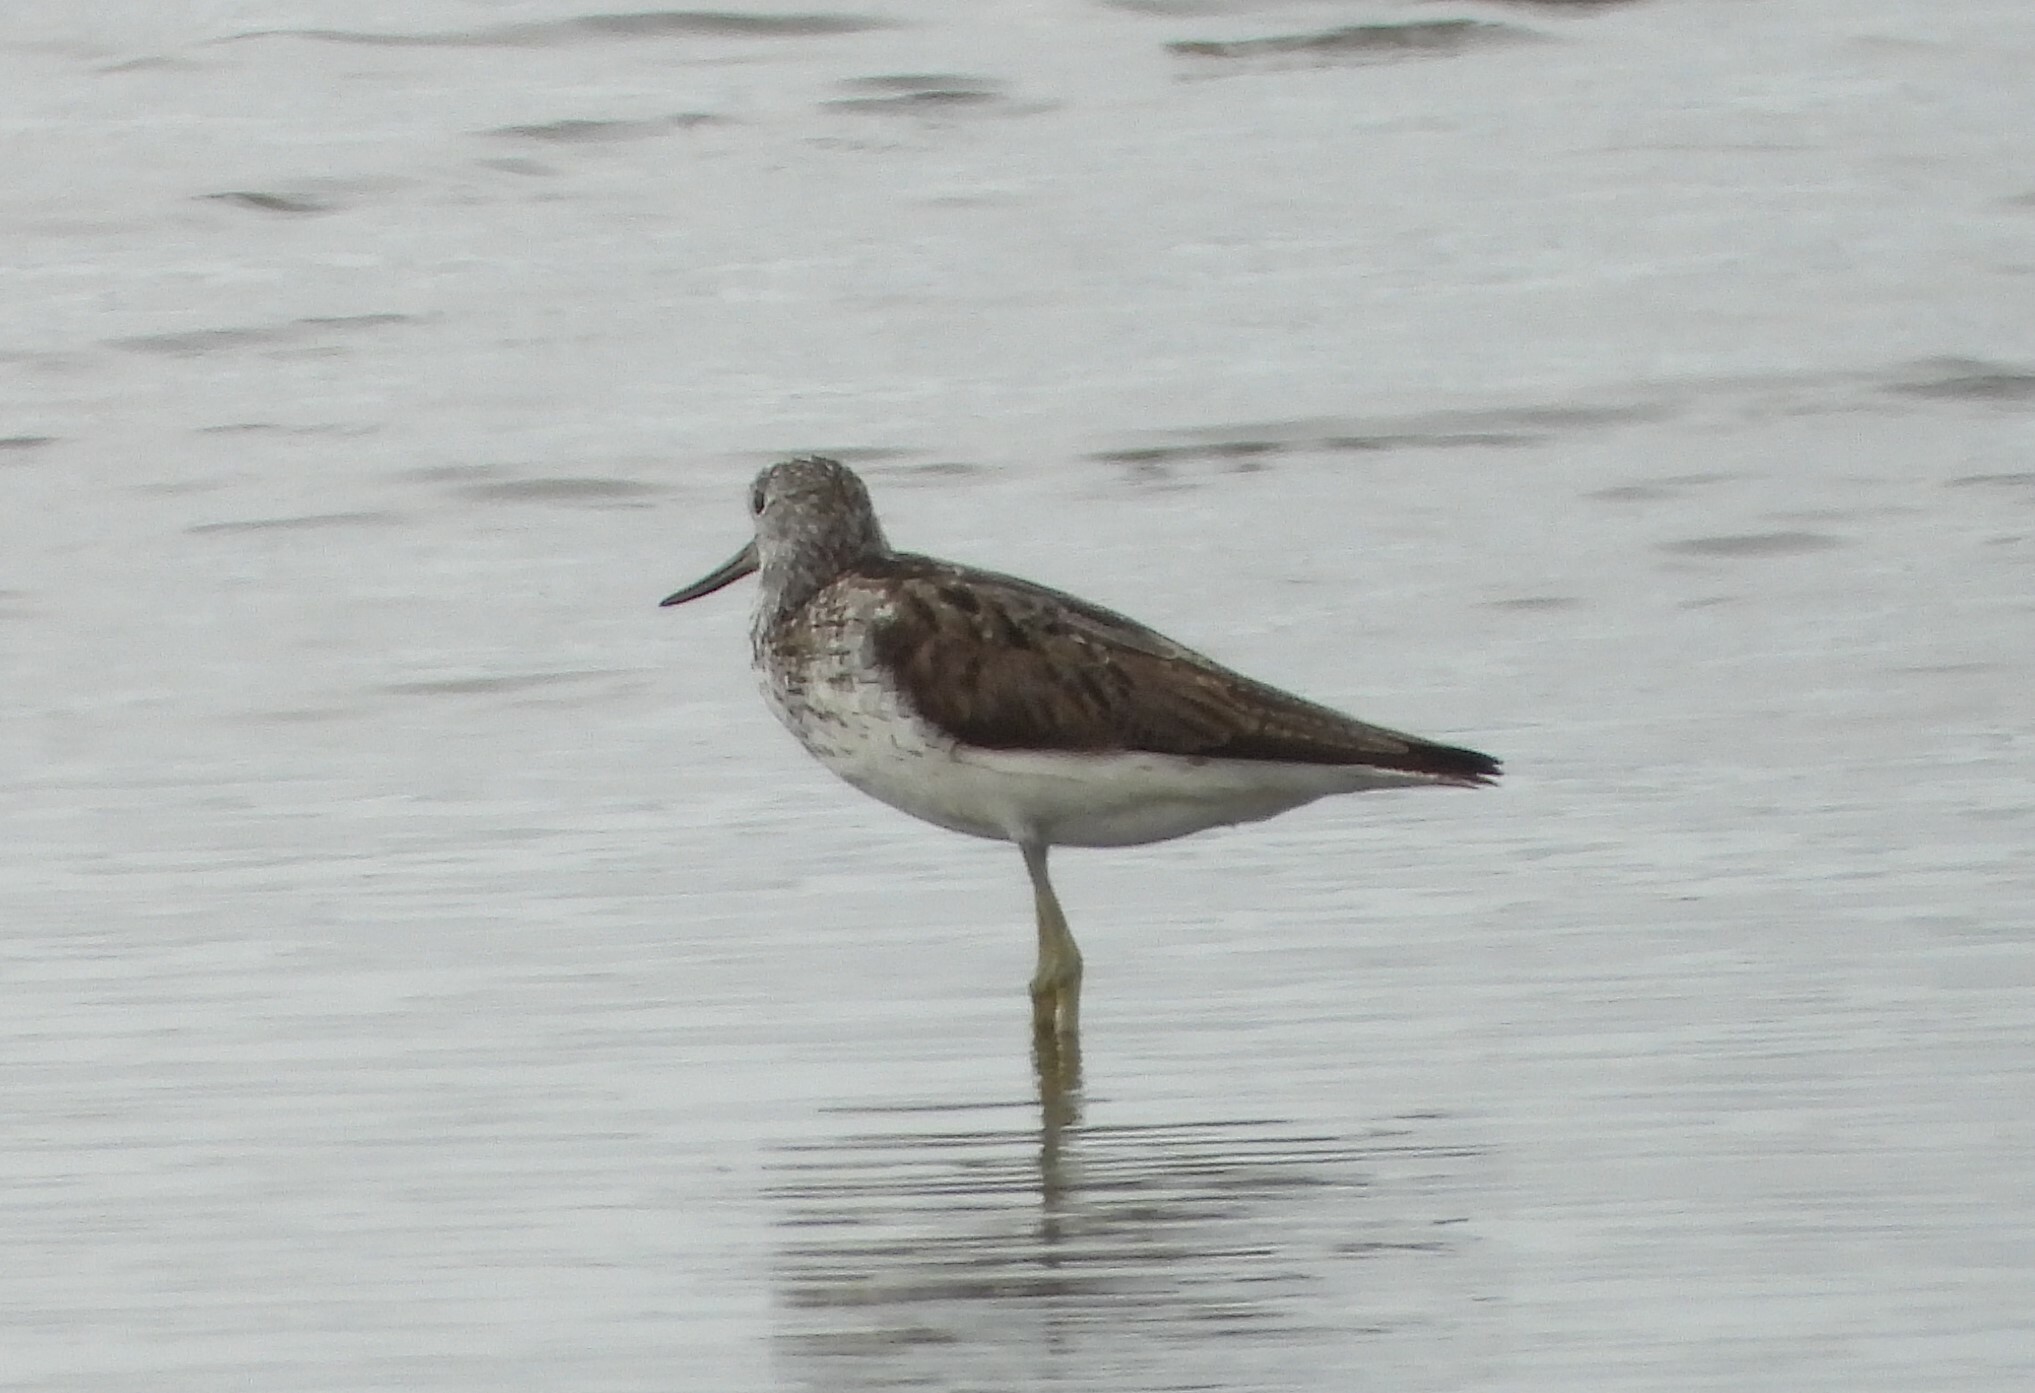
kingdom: Animalia
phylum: Chordata
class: Aves
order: Charadriiformes
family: Scolopacidae
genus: Tringa
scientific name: Tringa nebularia
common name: Common greenshank
